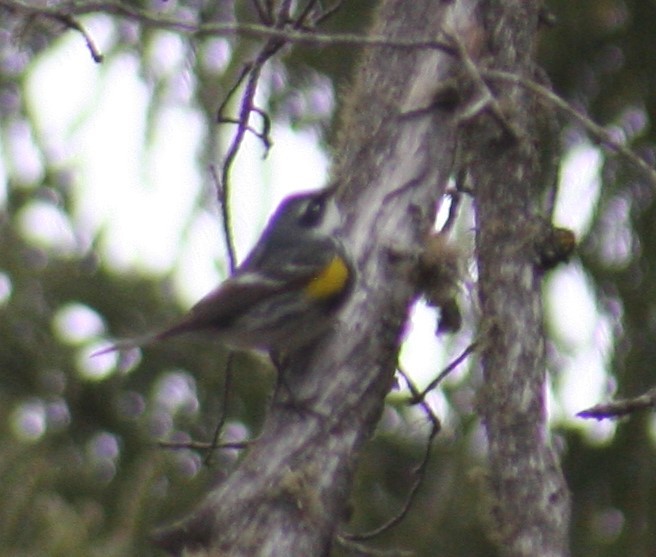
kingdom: Animalia
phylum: Chordata
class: Aves
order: Passeriformes
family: Parulidae
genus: Setophaga
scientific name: Setophaga coronata
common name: Myrtle warbler
